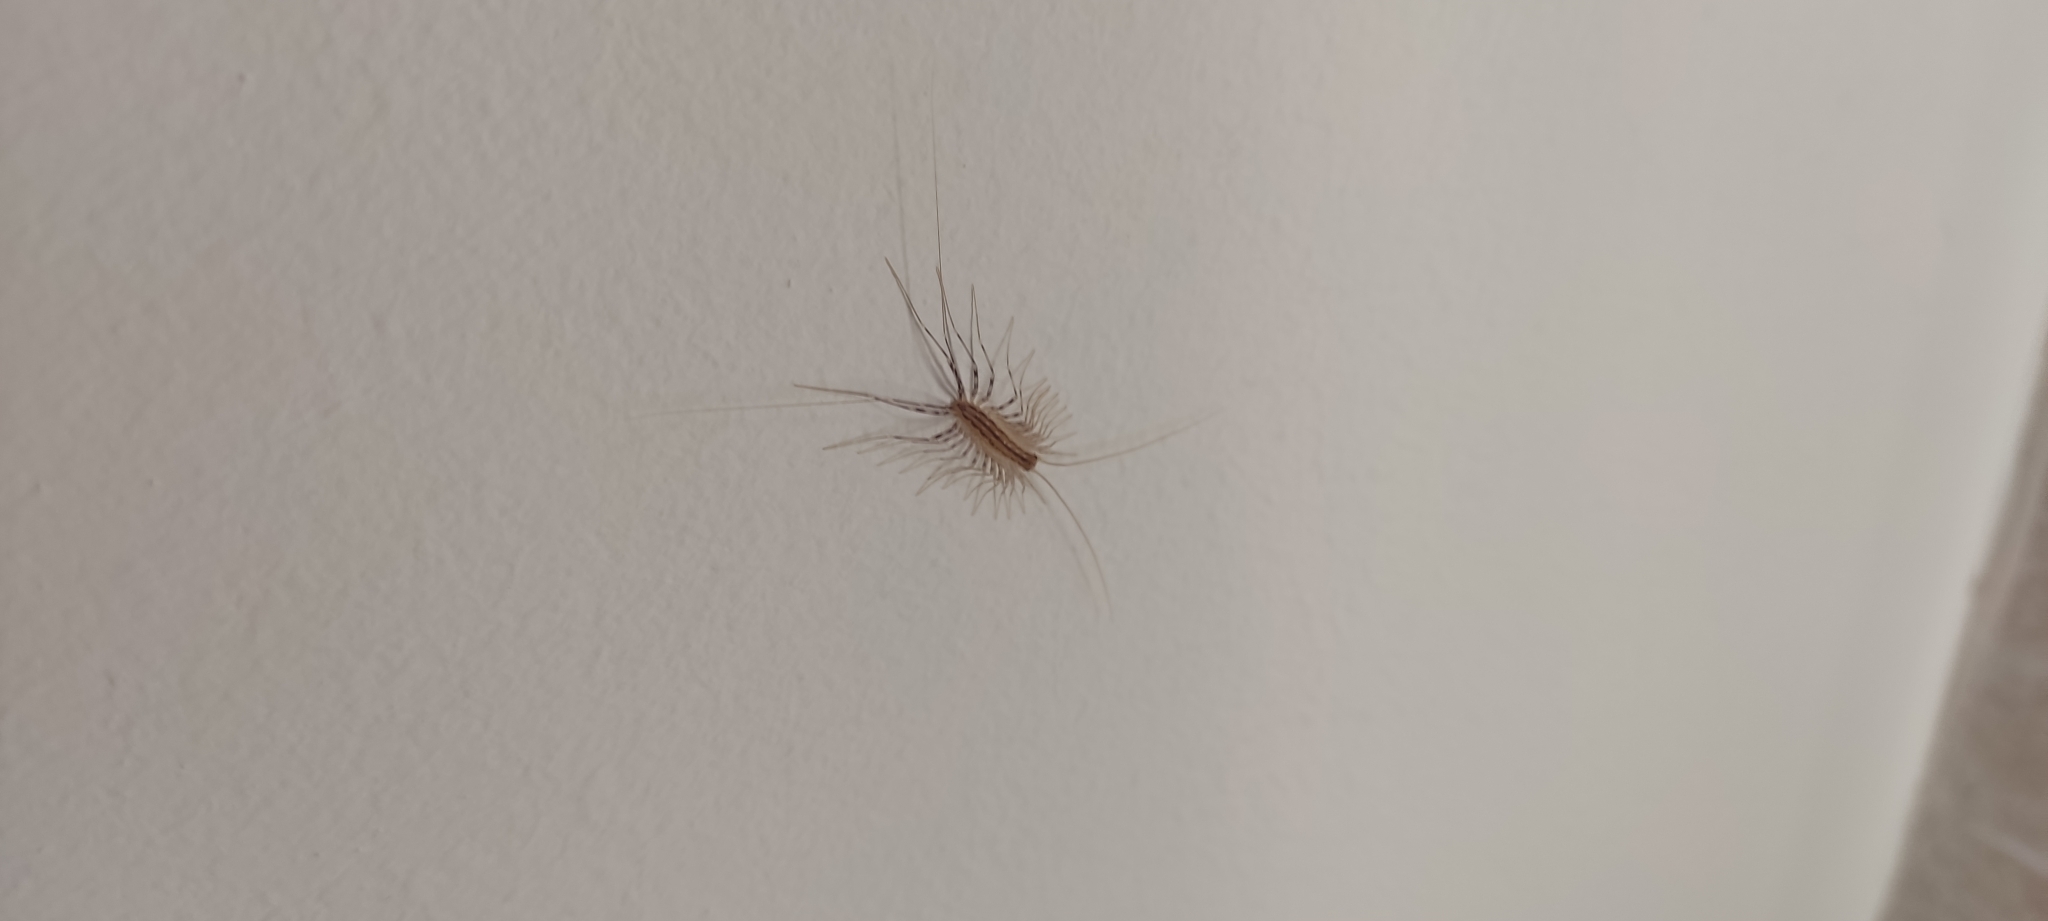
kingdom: Animalia
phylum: Arthropoda
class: Chilopoda
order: Scutigeromorpha
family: Scutigeridae
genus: Scutigera
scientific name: Scutigera coleoptrata
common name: House centipede
